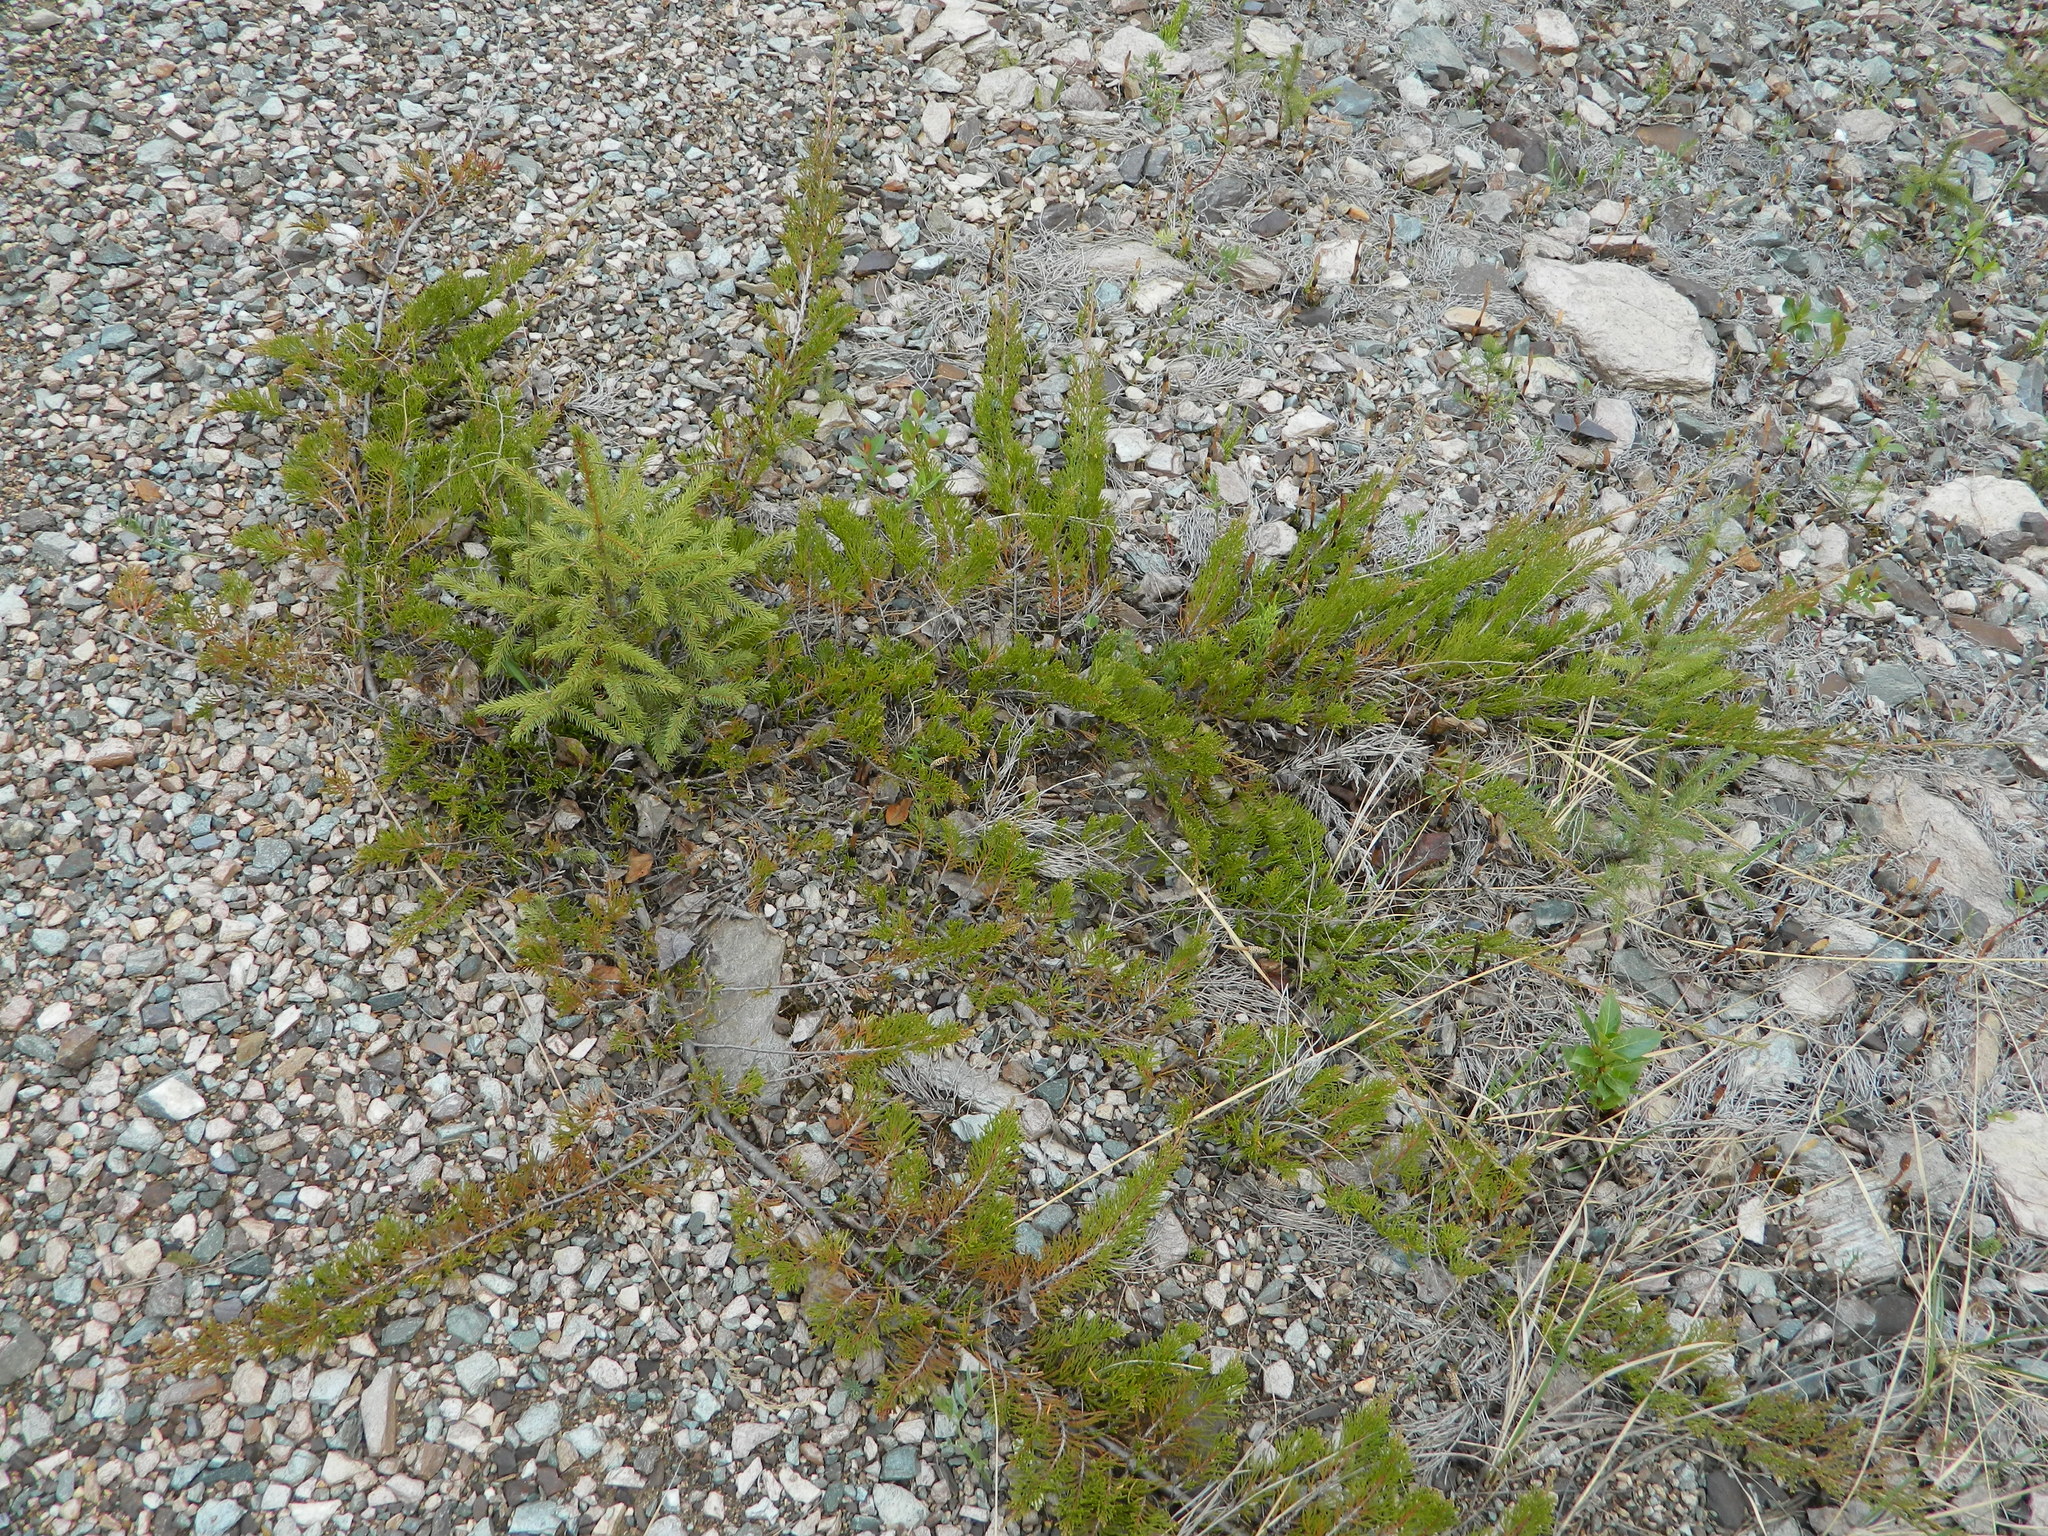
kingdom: Plantae
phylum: Tracheophyta
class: Pinopsida
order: Pinales
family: Cupressaceae
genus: Juniperus
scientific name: Juniperus horizontalis
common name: Creeping juniper
